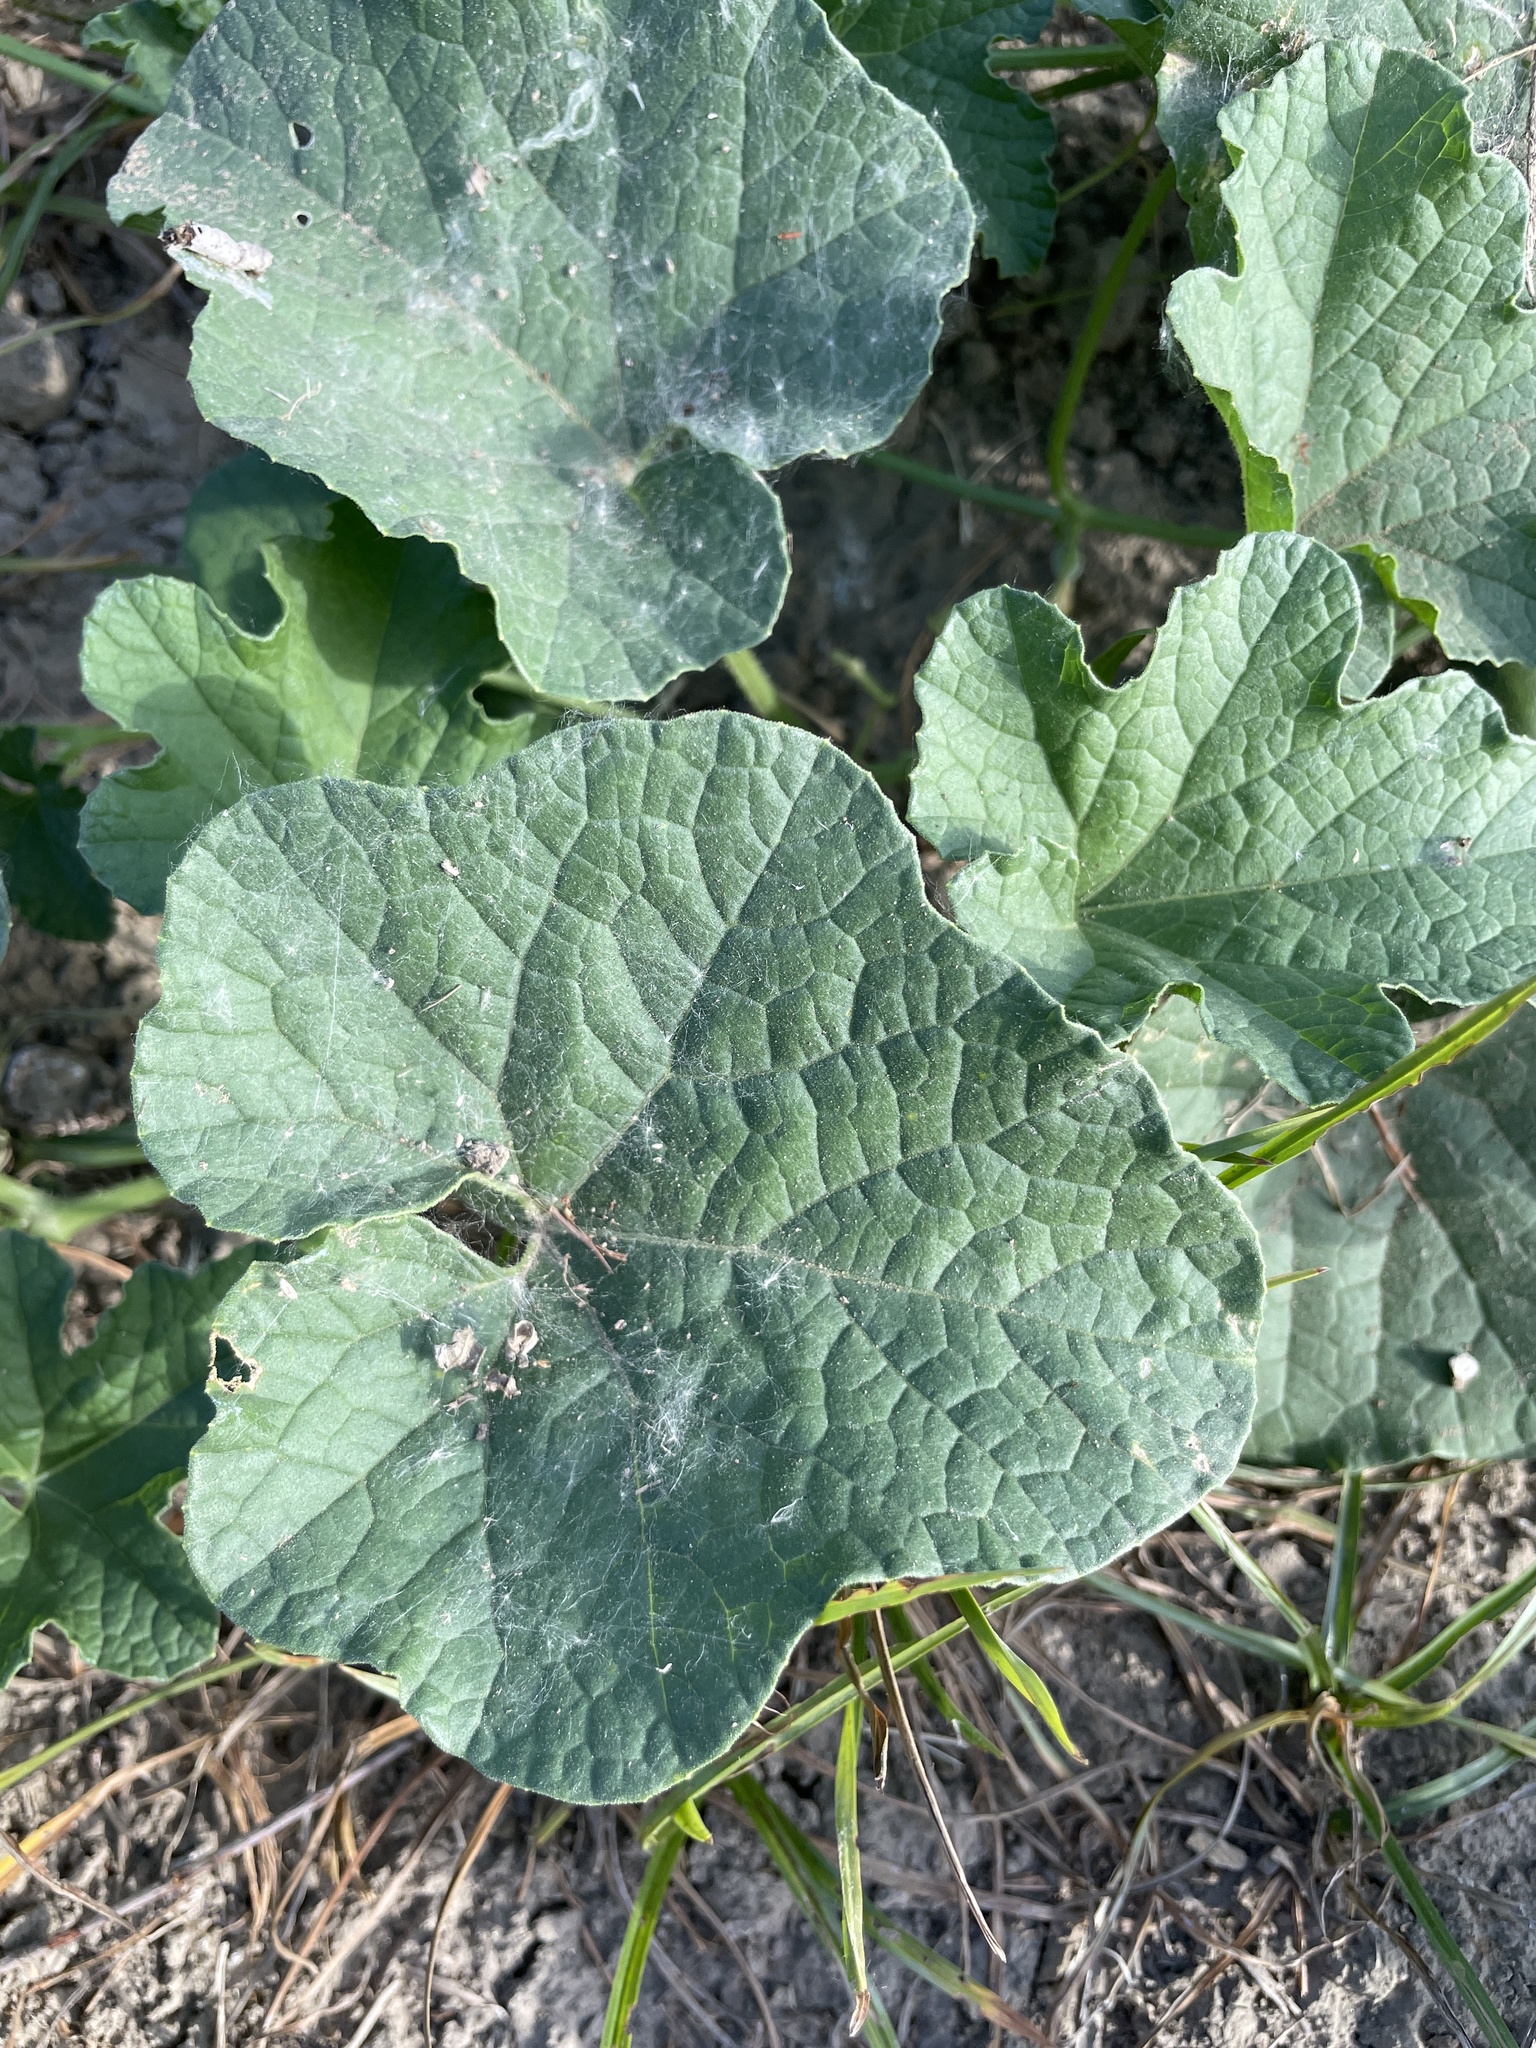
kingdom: Plantae
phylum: Tracheophyta
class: Magnoliopsida
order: Cucurbitales
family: Cucurbitaceae
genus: Cucumis
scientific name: Cucumis melo
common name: Melon
